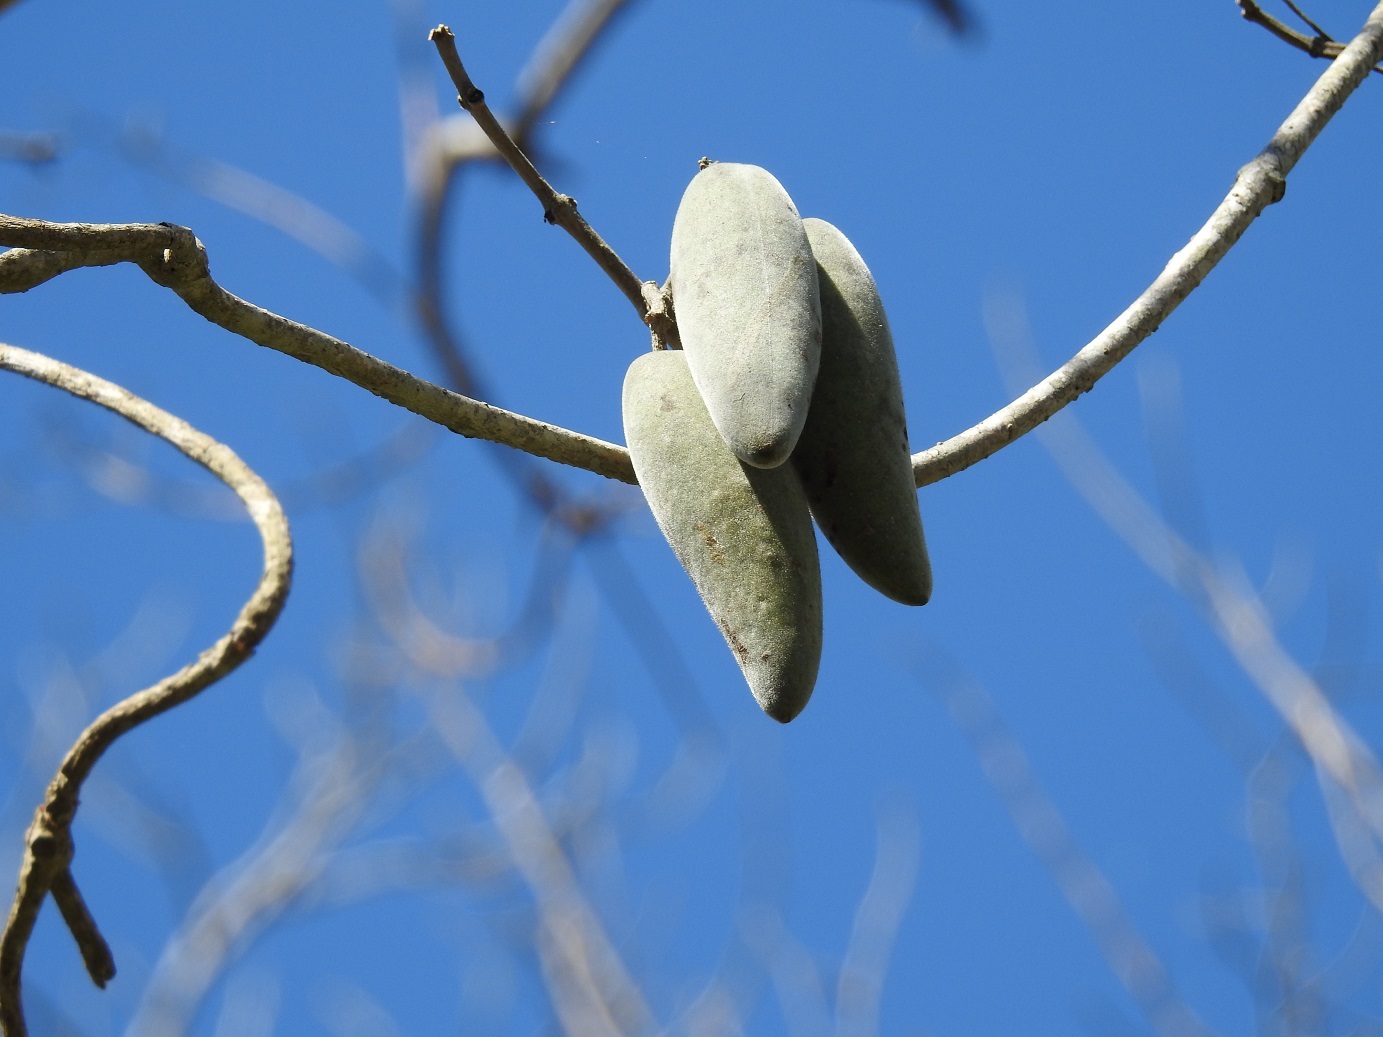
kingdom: Plantae
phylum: Tracheophyta
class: Magnoliopsida
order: Gentianales
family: Apocynaceae
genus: Ruehssia
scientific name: Ruehssia mexicana
